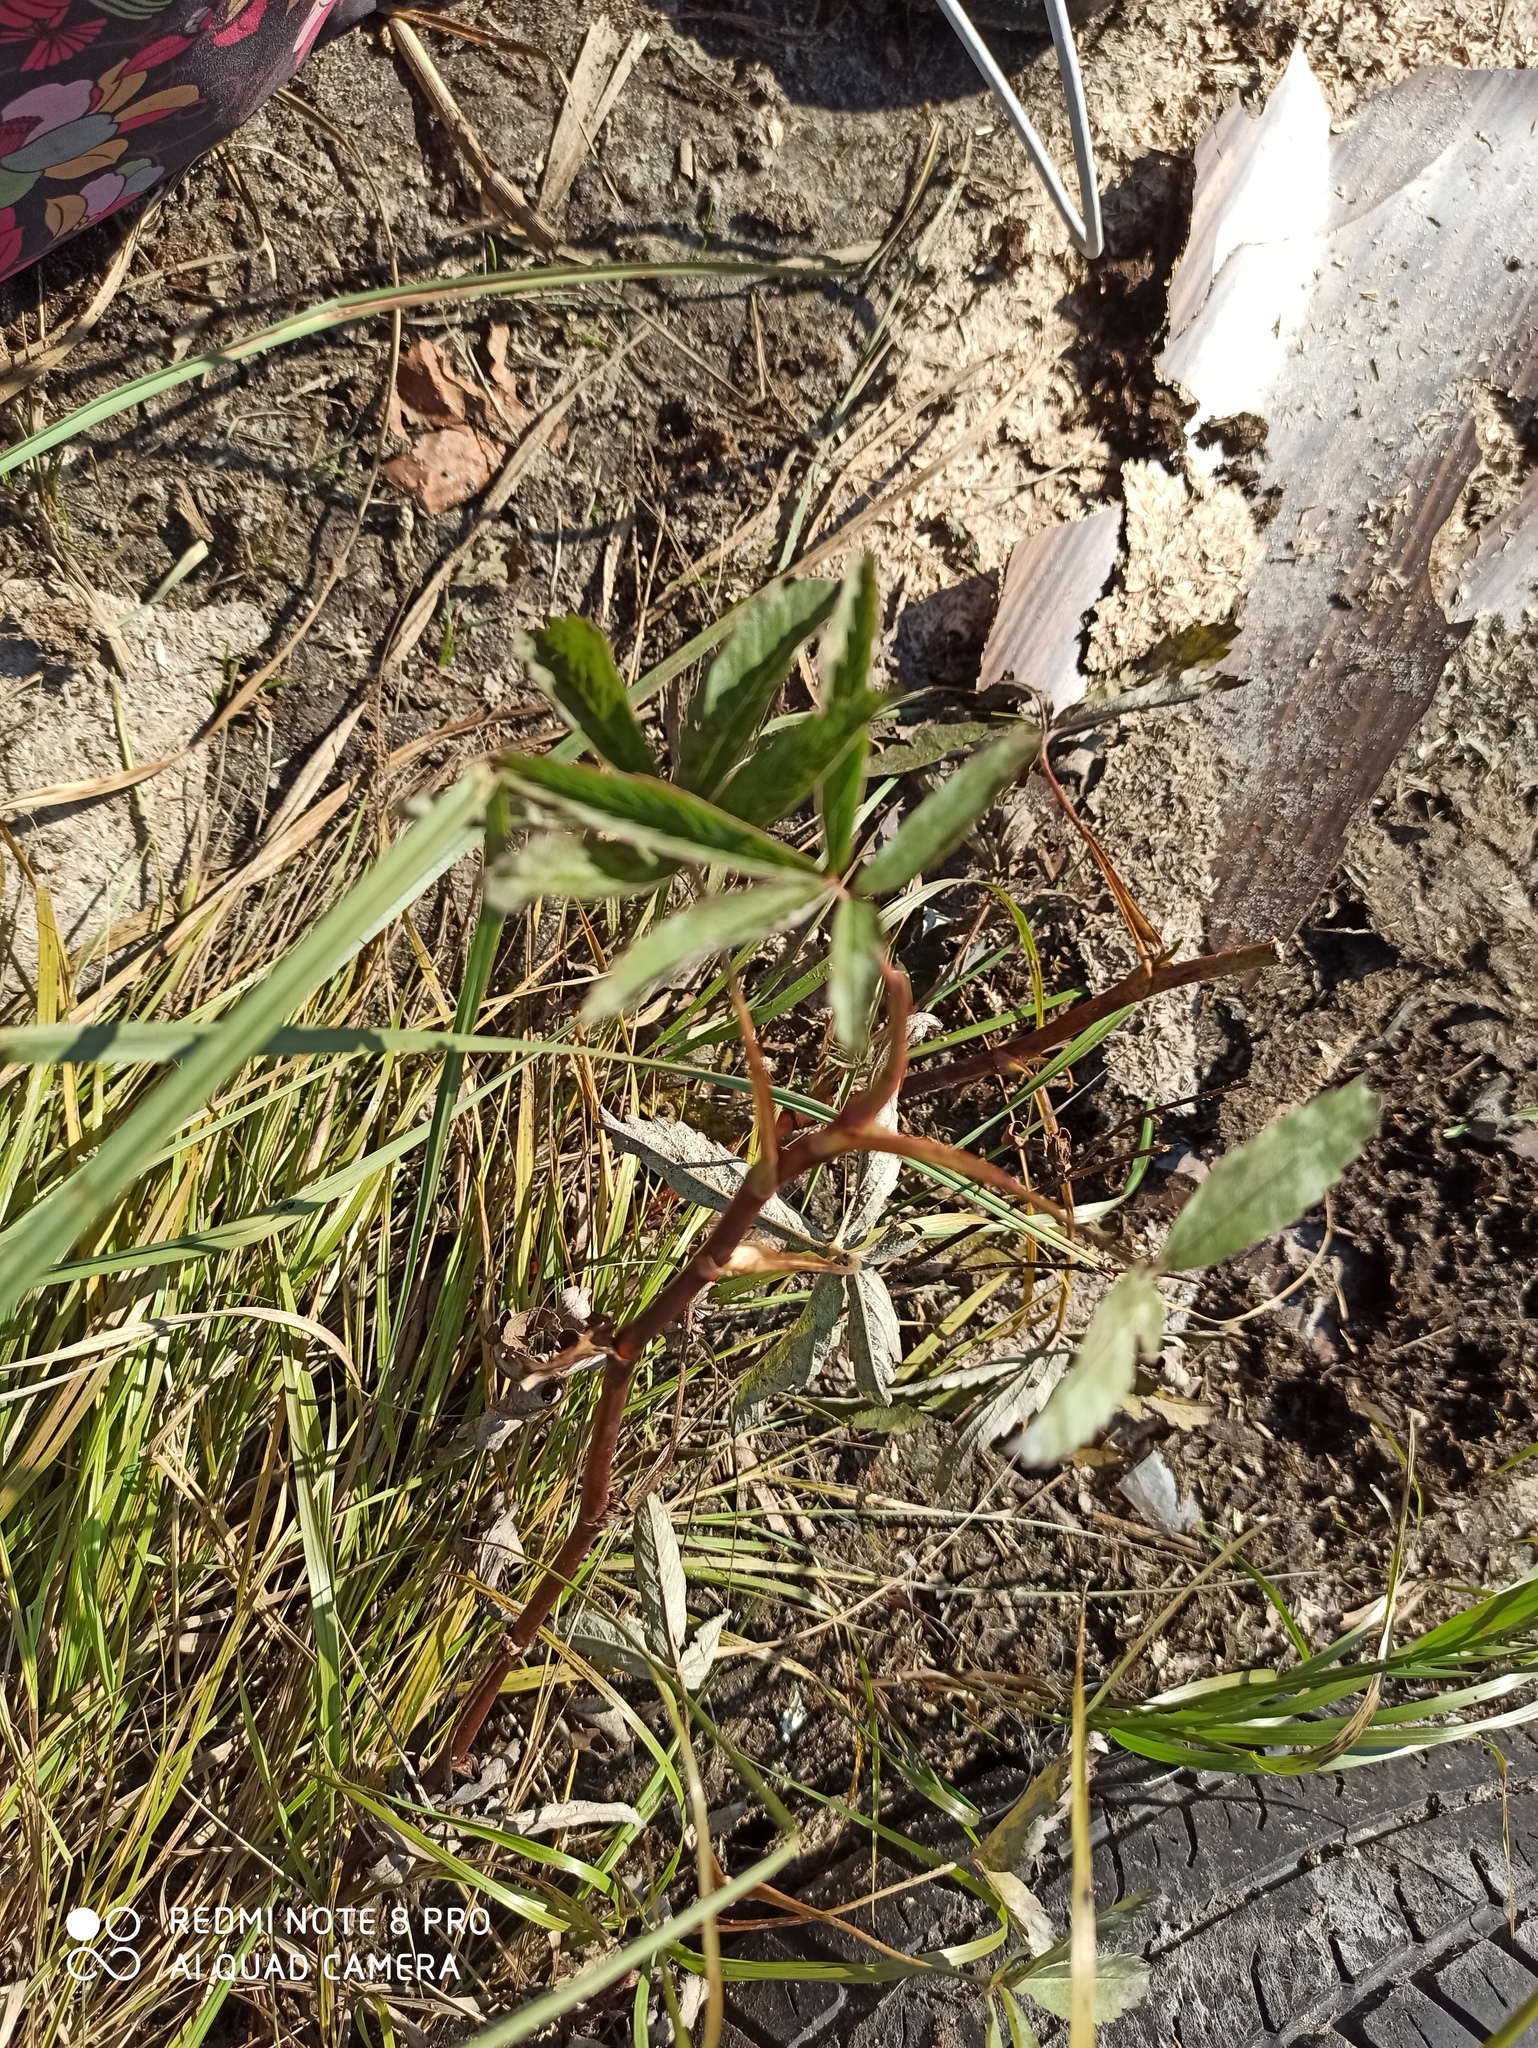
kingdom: Plantae
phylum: Tracheophyta
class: Magnoliopsida
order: Rosales
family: Rosaceae
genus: Comarum
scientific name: Comarum palustre
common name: Marsh cinquefoil
